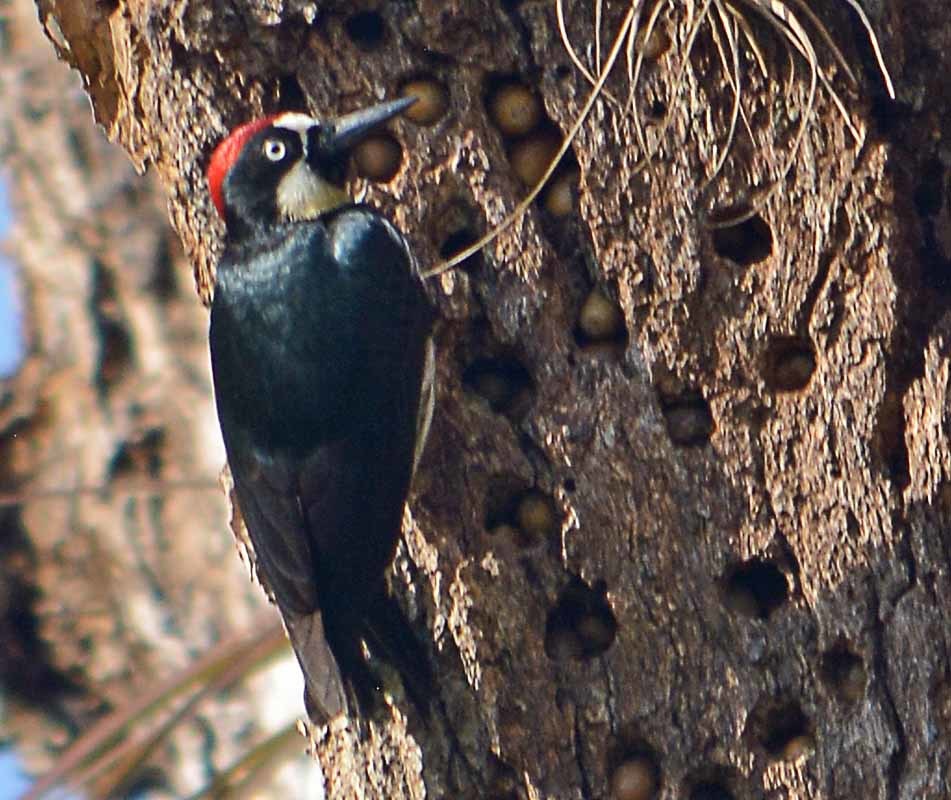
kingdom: Animalia
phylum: Chordata
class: Aves
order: Piciformes
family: Picidae
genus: Melanerpes
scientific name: Melanerpes formicivorus
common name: Acorn woodpecker
